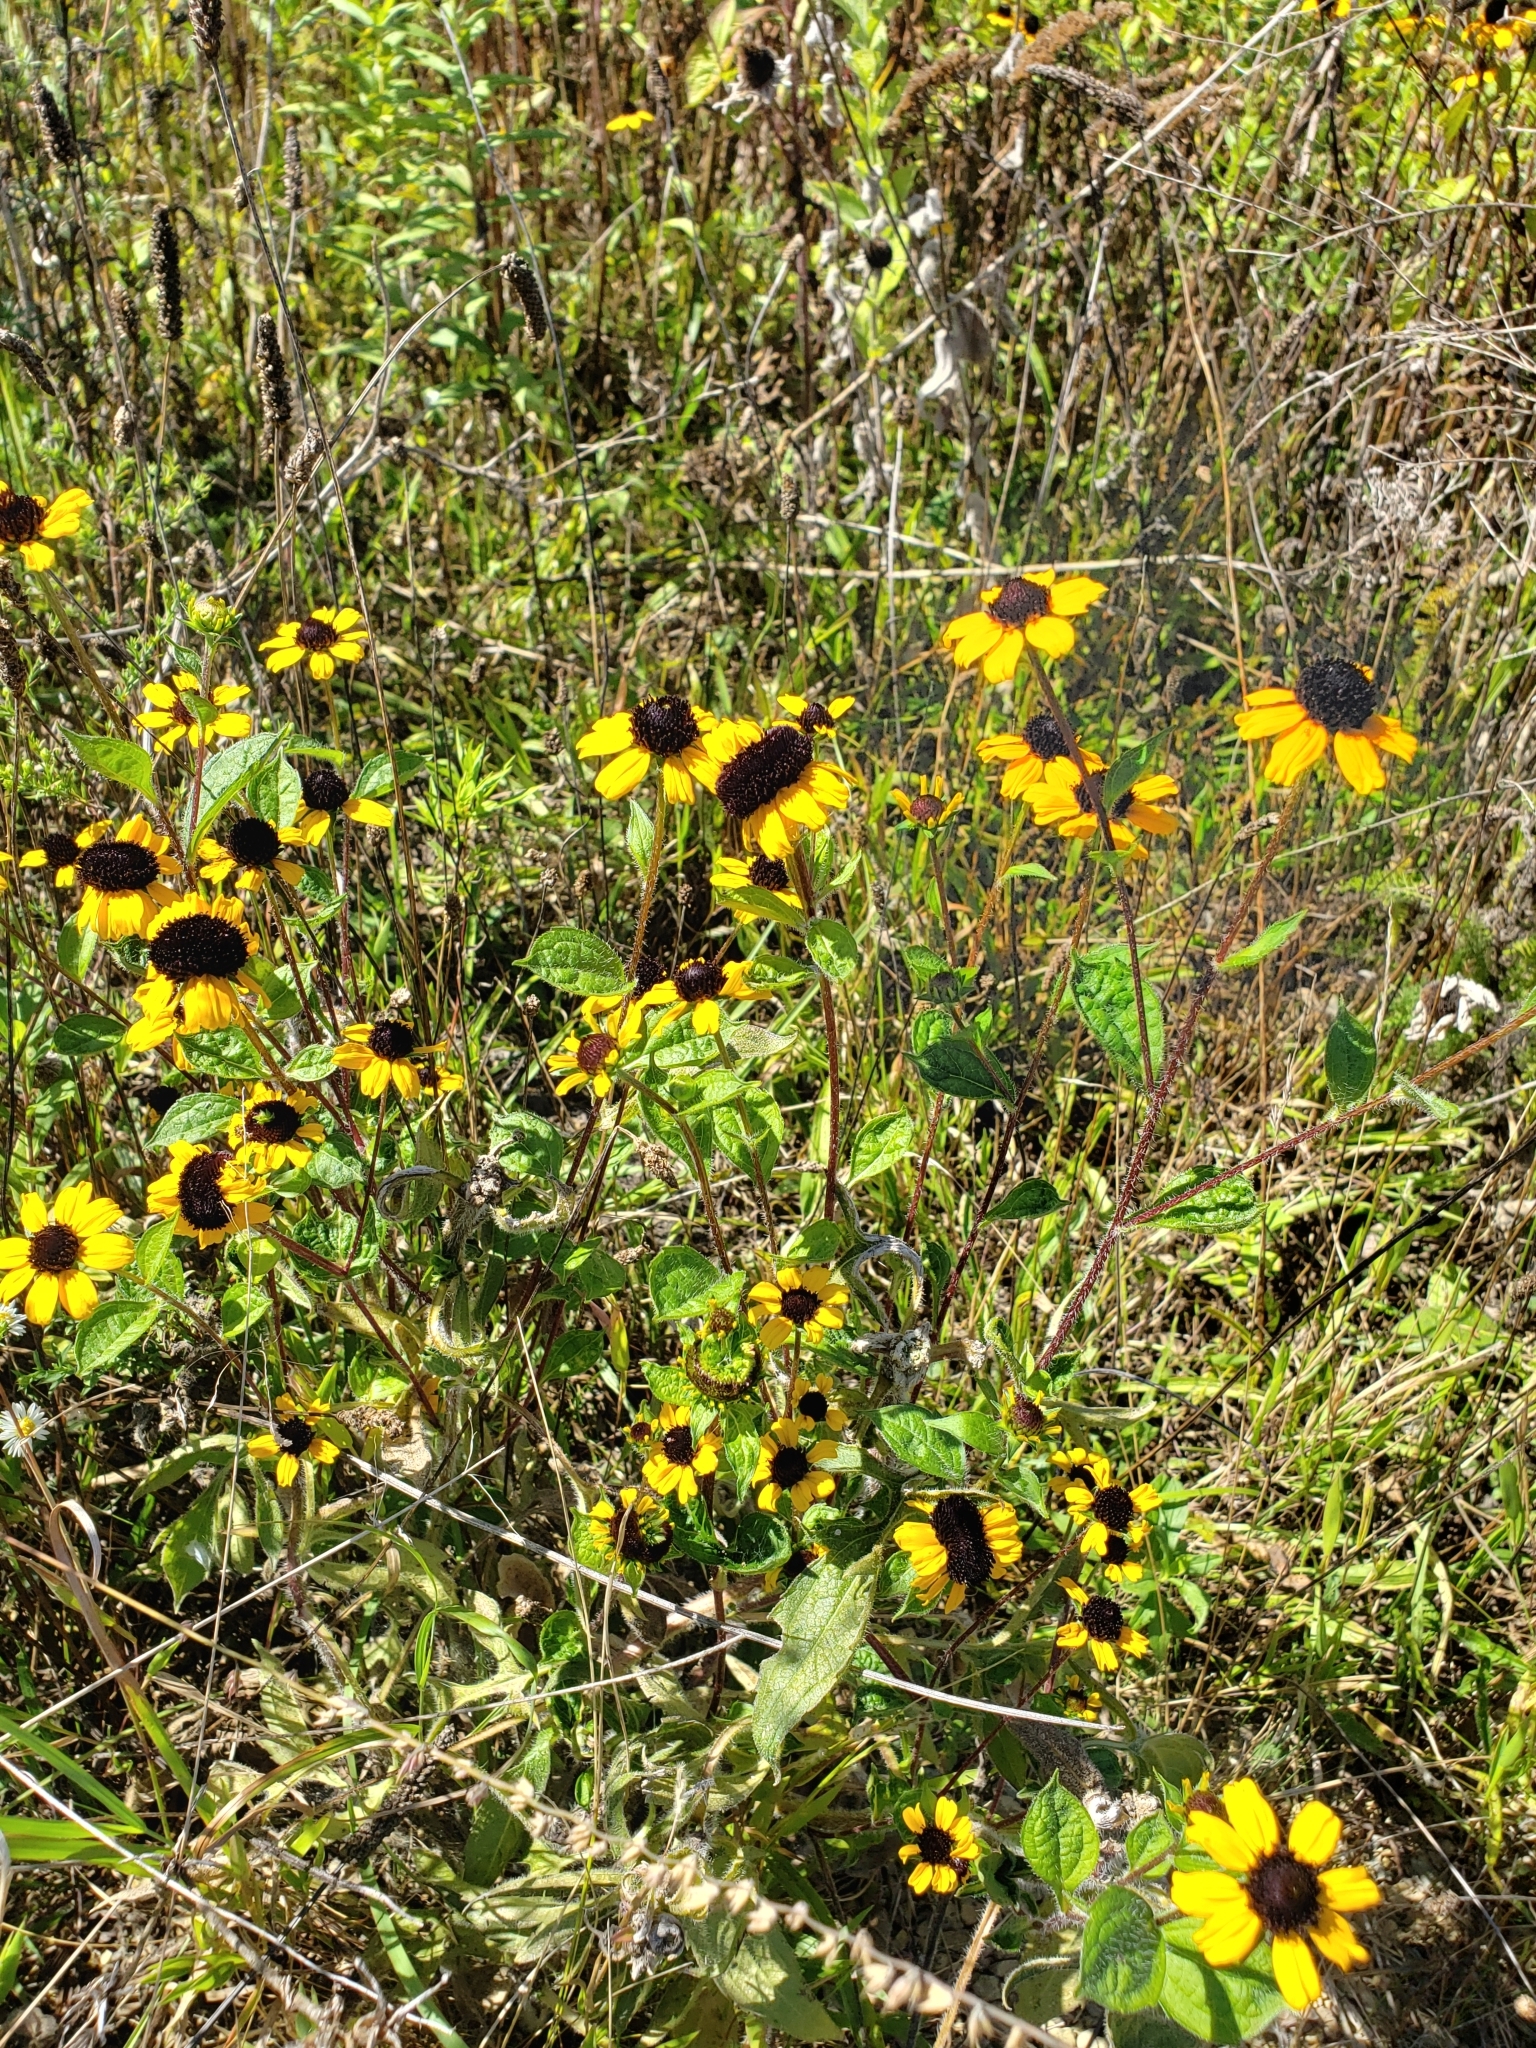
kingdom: Plantae
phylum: Tracheophyta
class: Magnoliopsida
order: Asterales
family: Asteraceae
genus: Rudbeckia
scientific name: Rudbeckia triloba
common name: Thin-leaved coneflower
